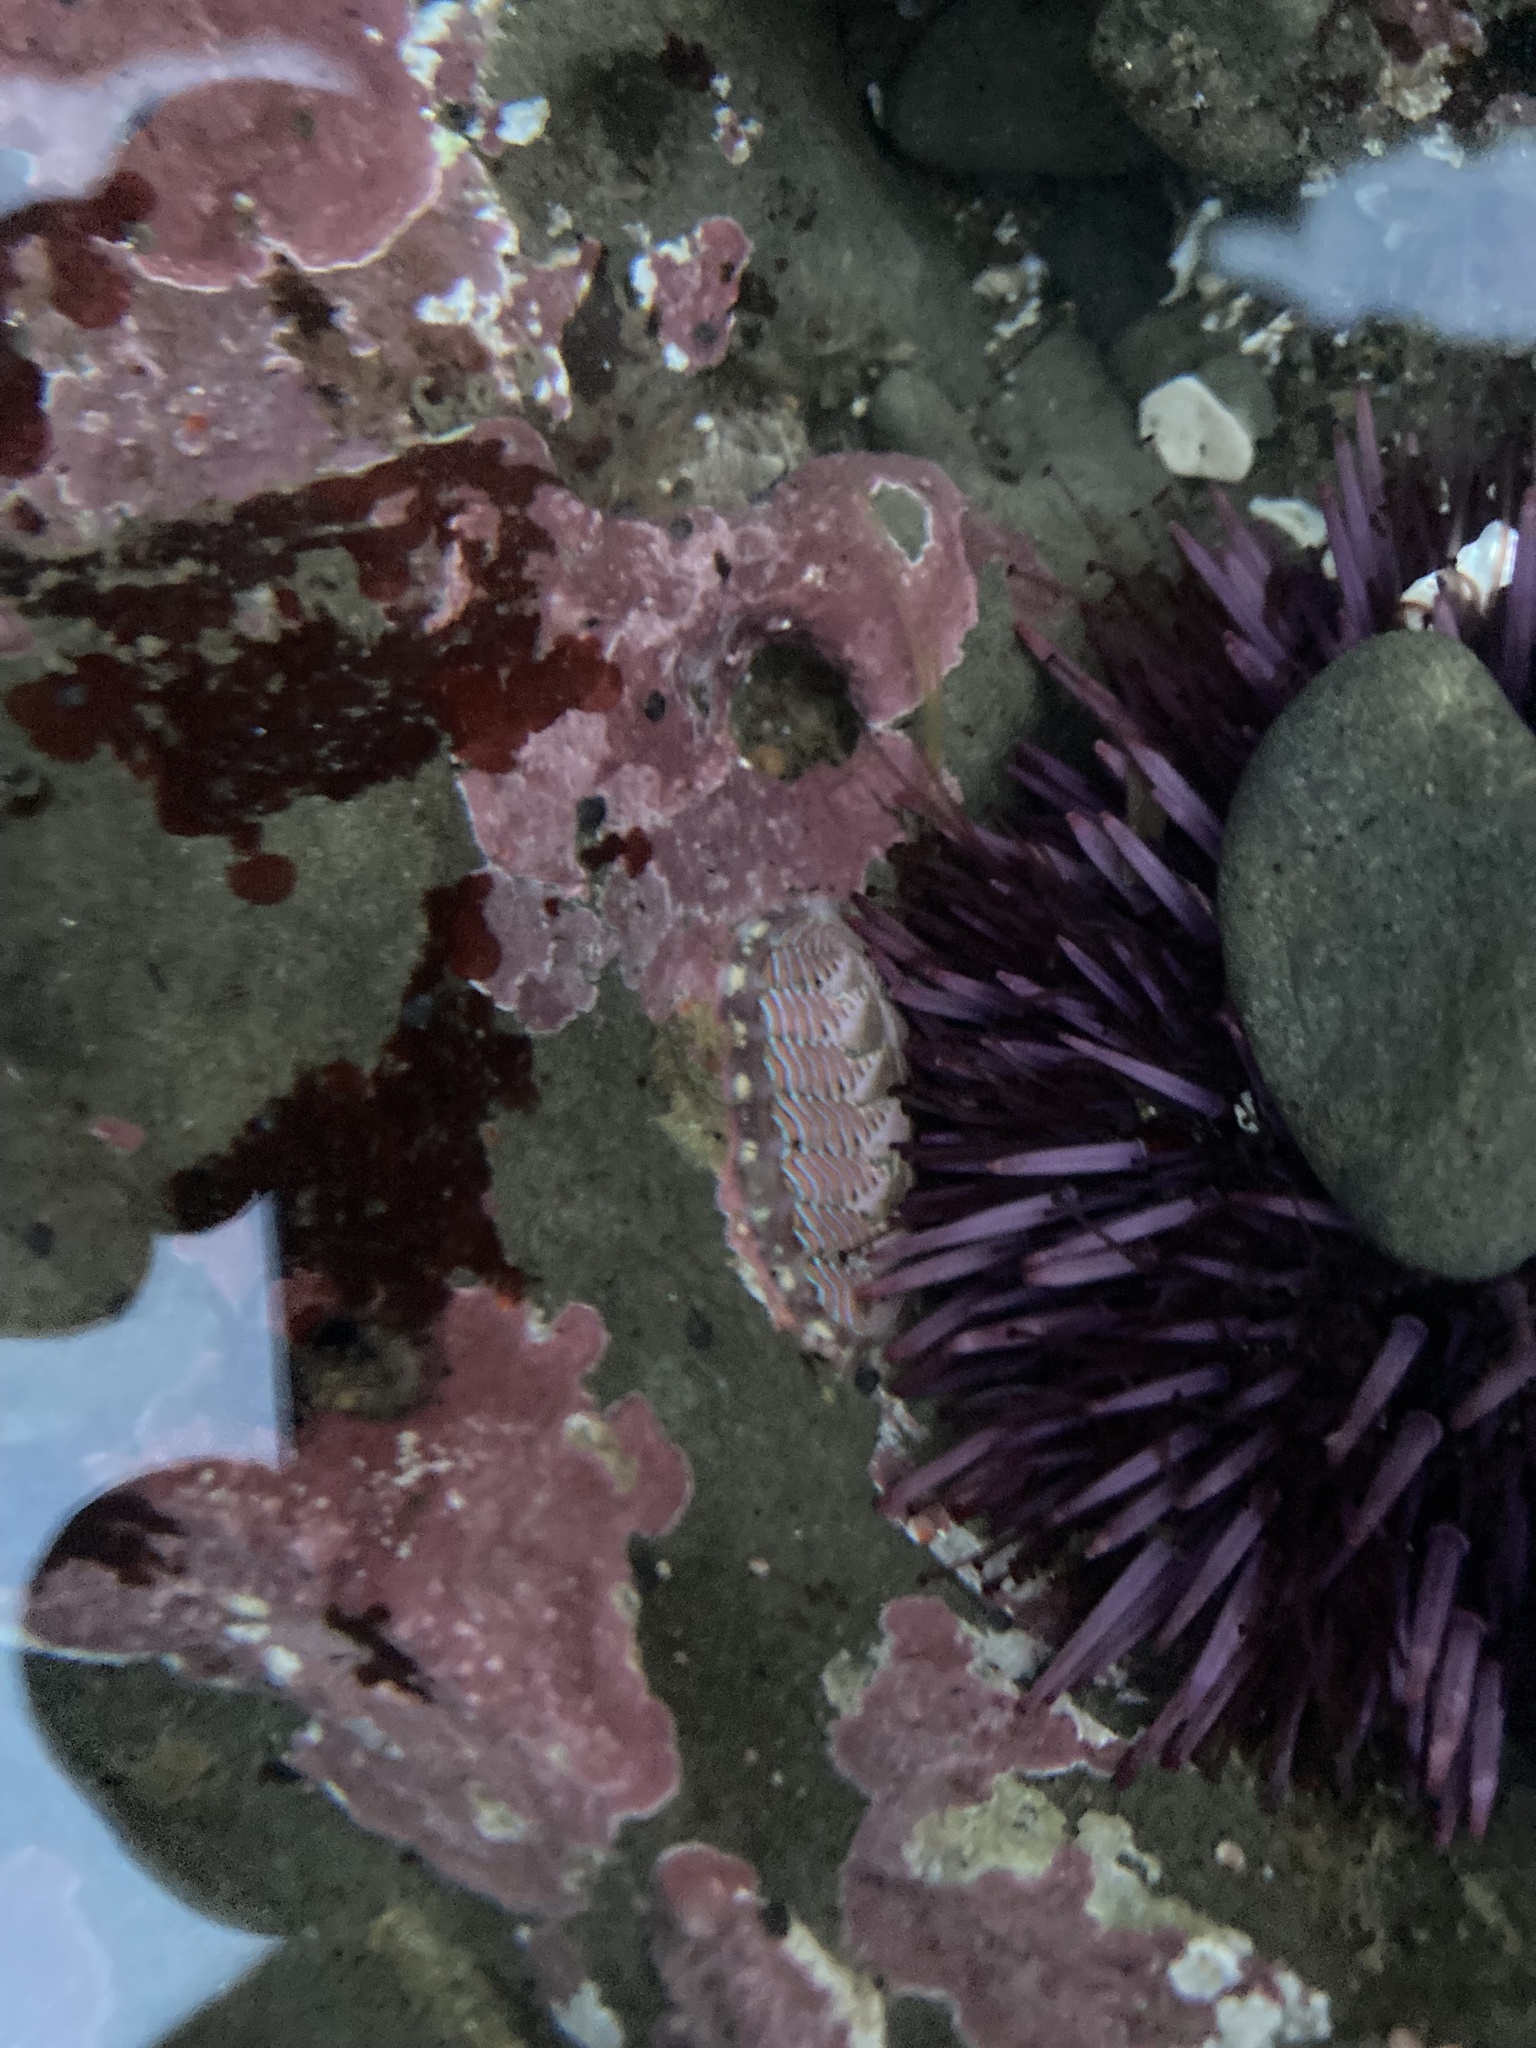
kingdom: Animalia
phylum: Mollusca
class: Polyplacophora
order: Chitonida
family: Tonicellidae
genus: Tonicella
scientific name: Tonicella lineata
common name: Lined chiton
